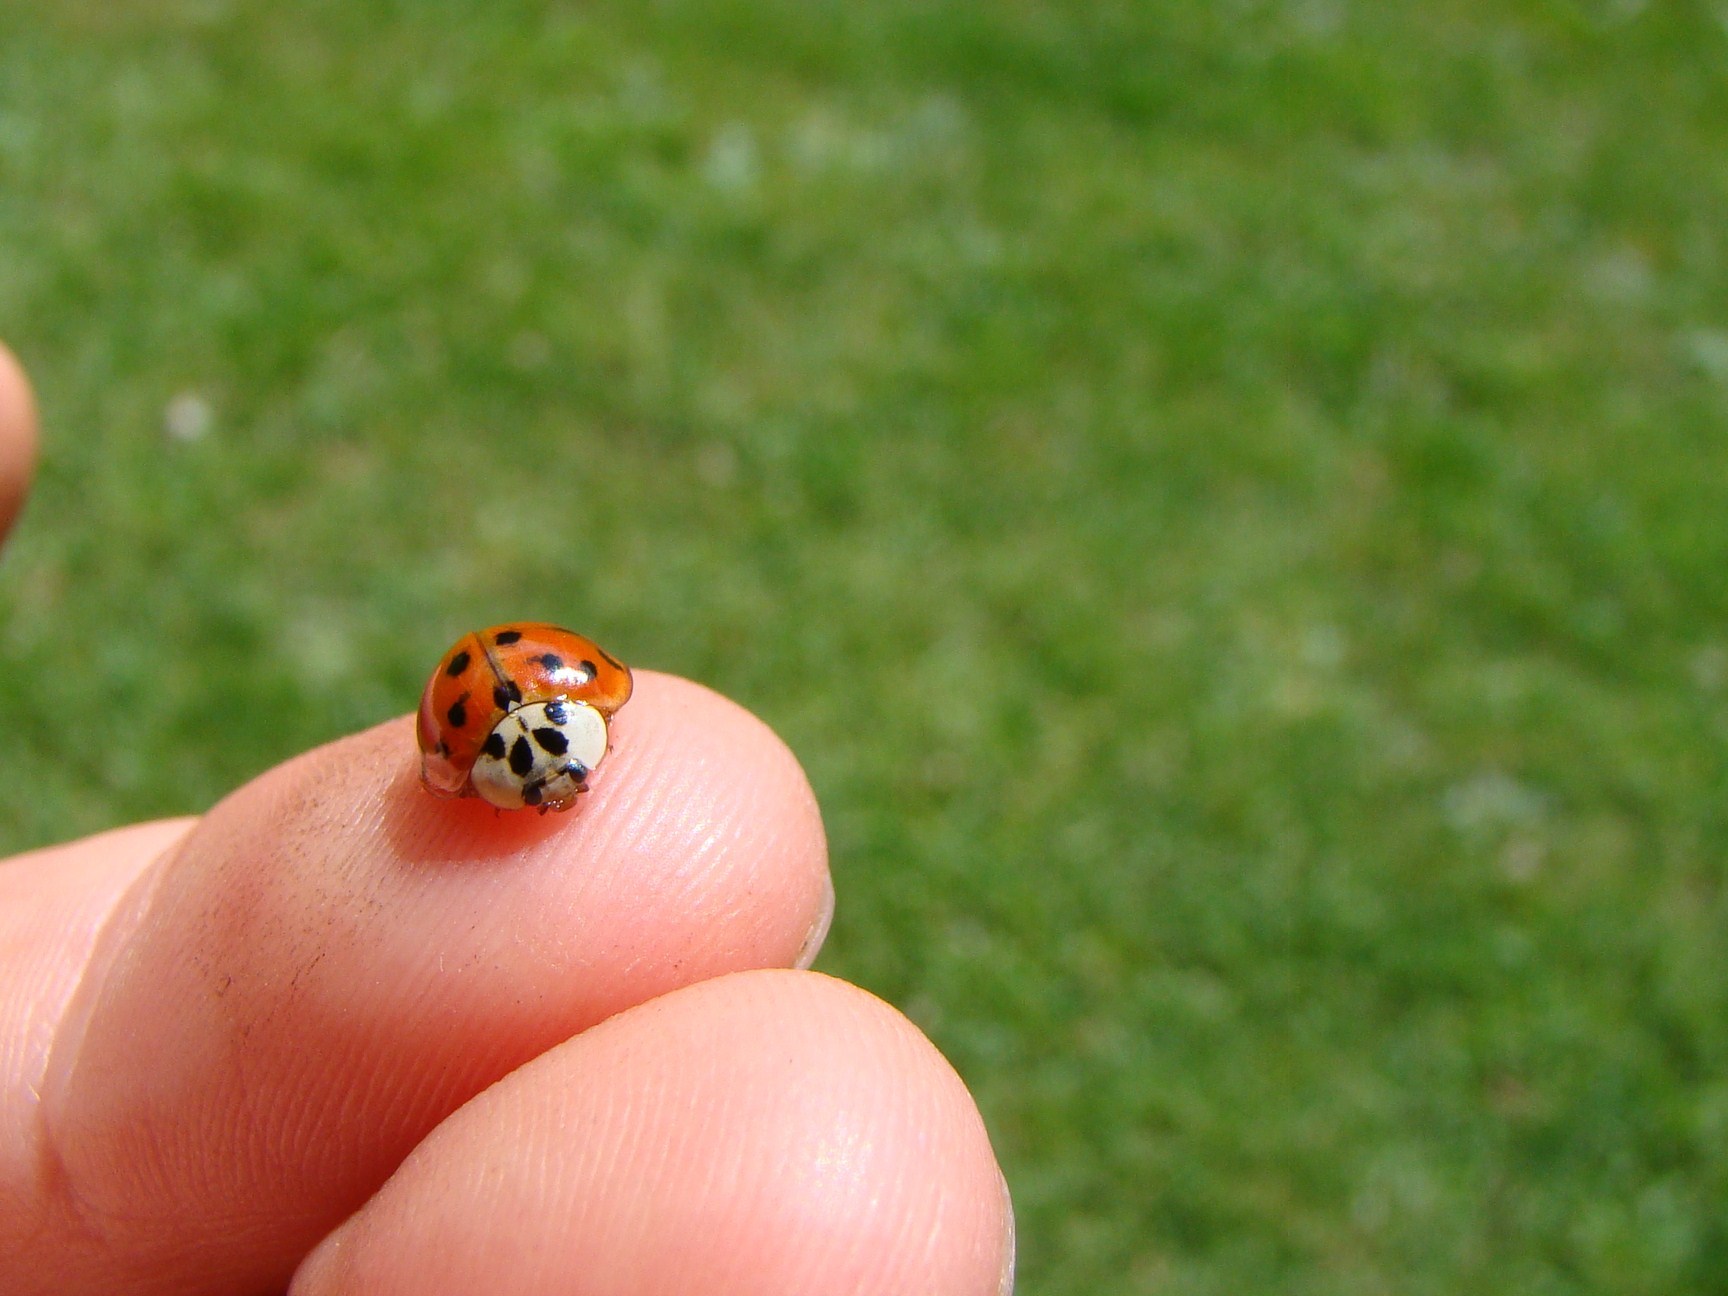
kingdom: Animalia
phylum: Arthropoda
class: Insecta
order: Coleoptera
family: Coccinellidae
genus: Harmonia
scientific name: Harmonia axyridis
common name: Harlequin ladybird
